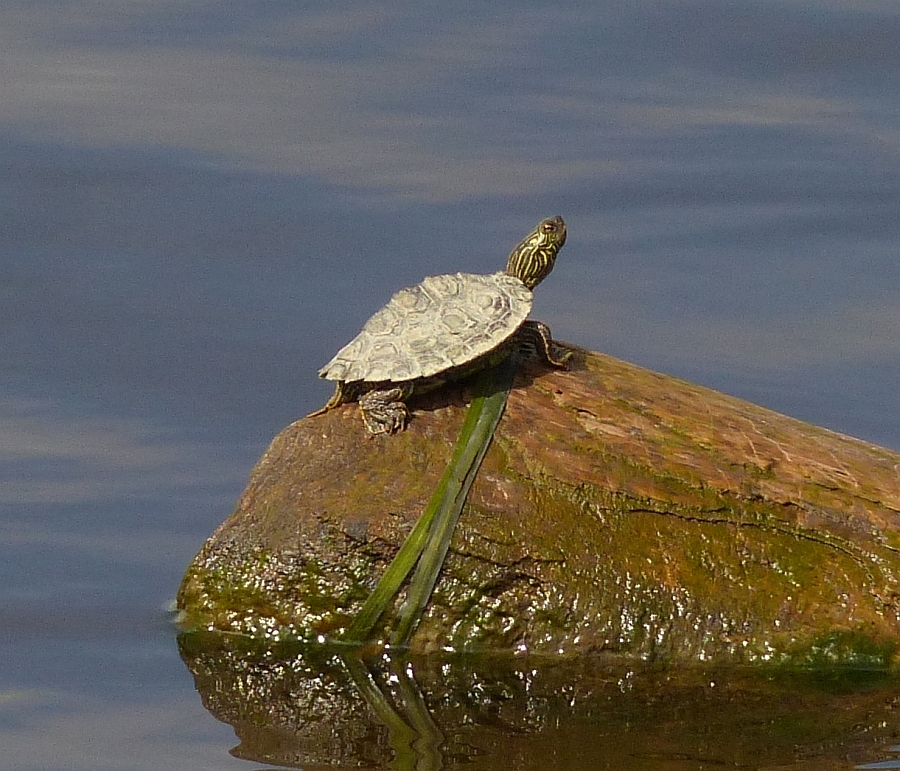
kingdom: Animalia
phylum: Chordata
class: Testudines
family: Emydidae
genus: Graptemys
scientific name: Graptemys geographica
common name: Common map turtle
